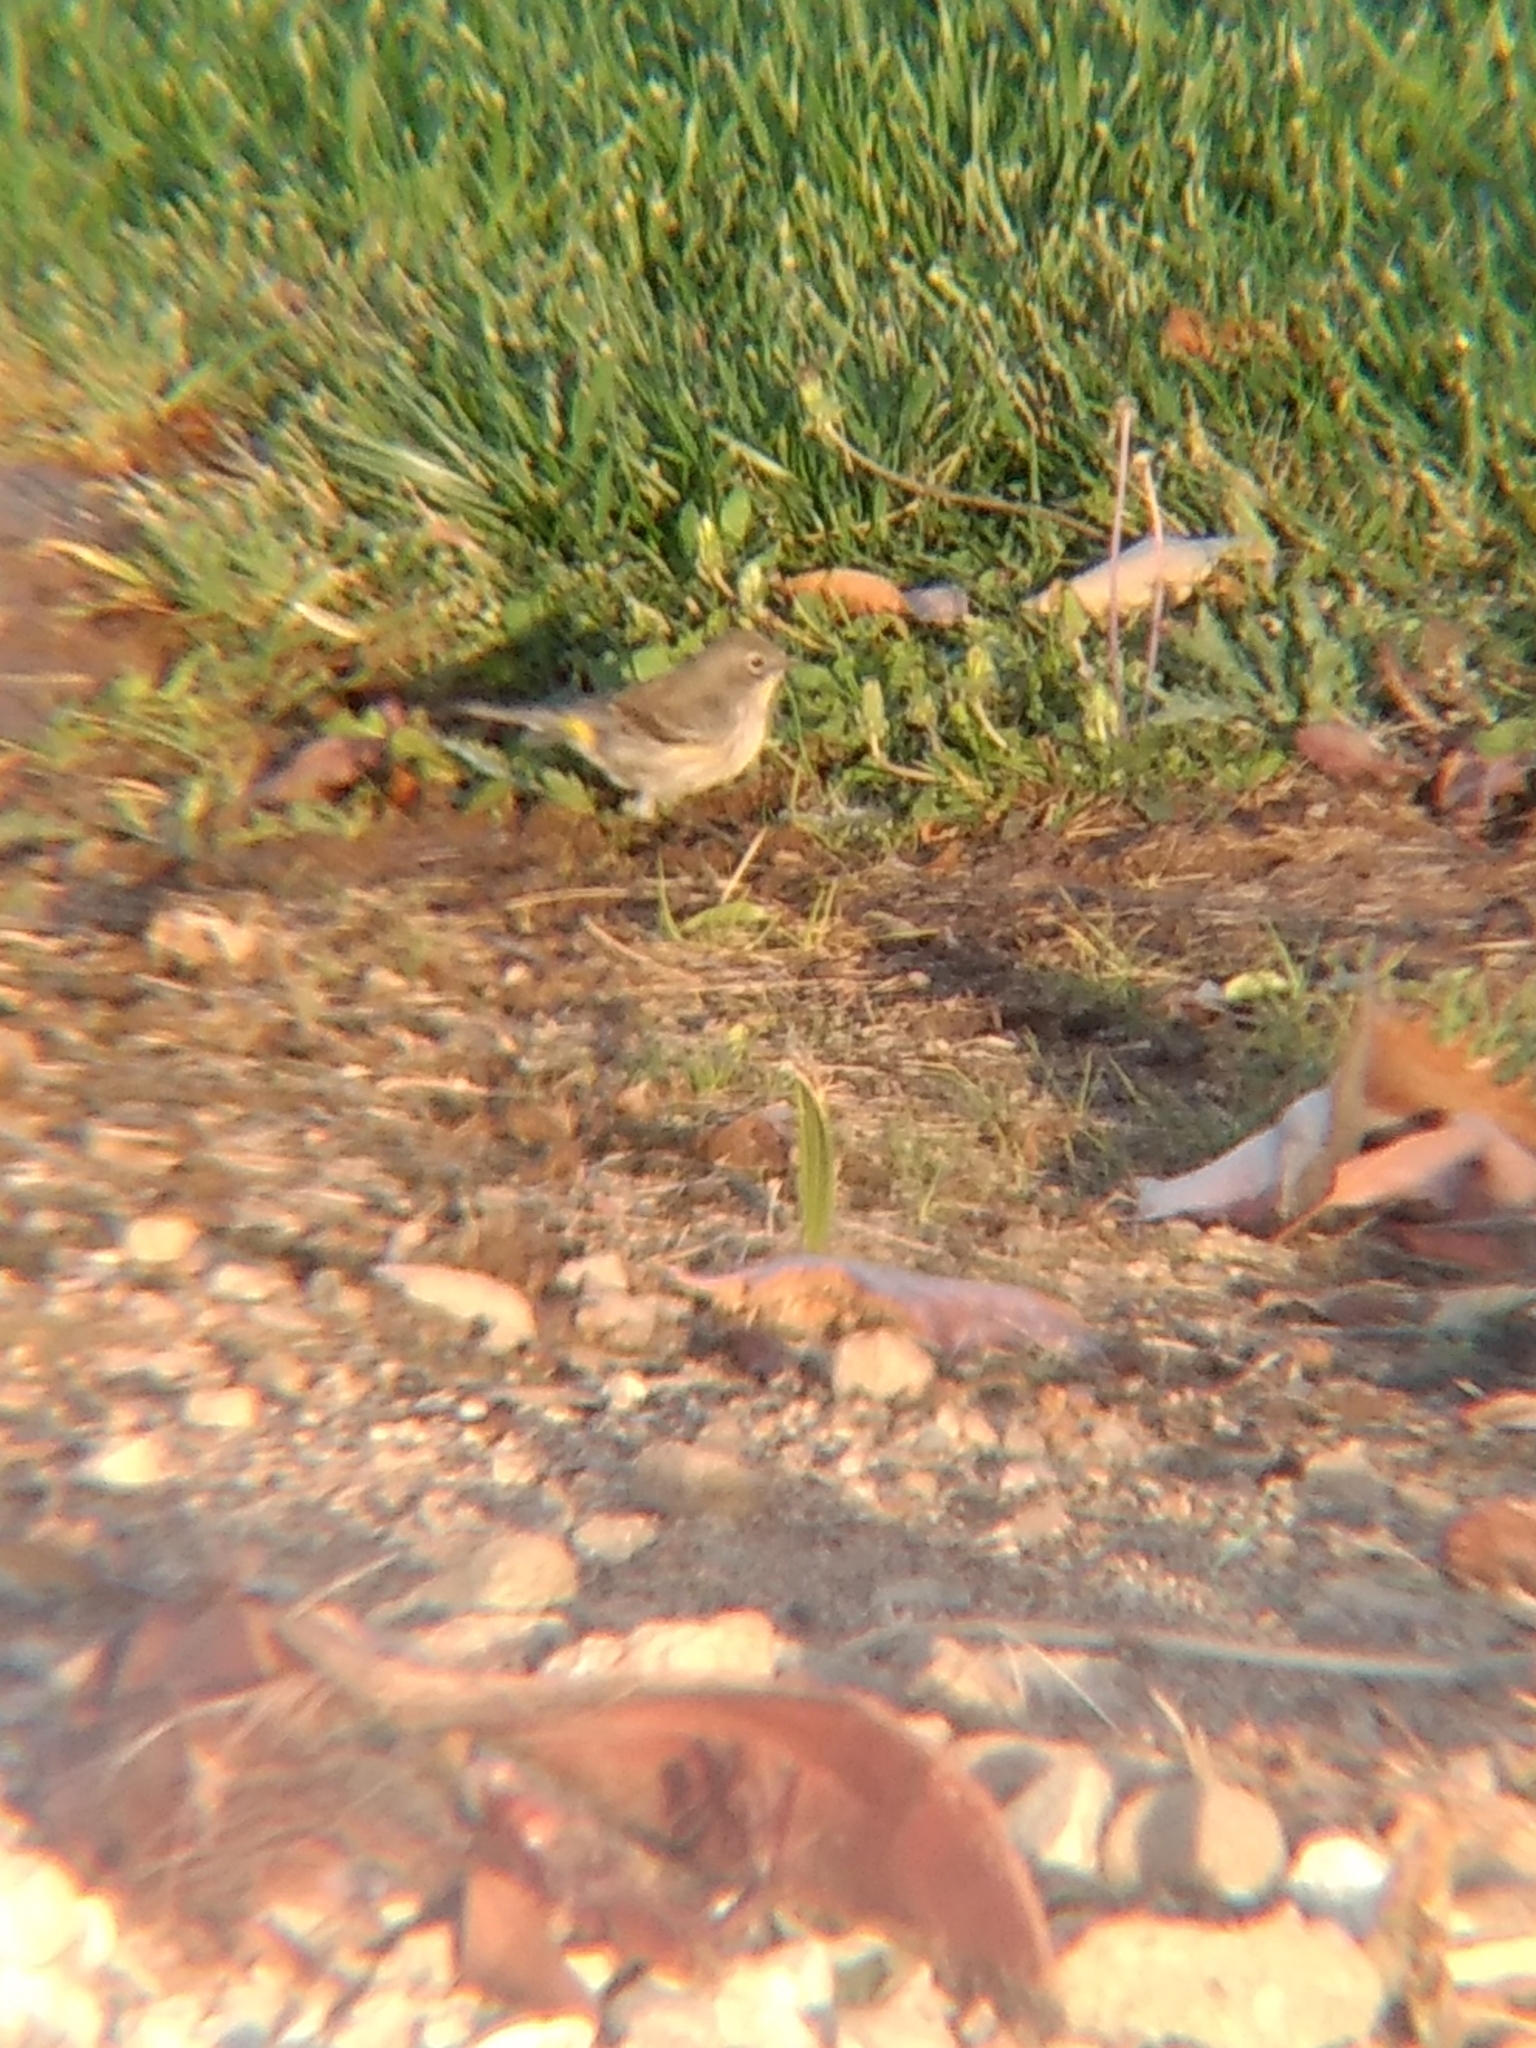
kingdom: Animalia
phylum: Chordata
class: Aves
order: Passeriformes
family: Parulidae
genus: Setophaga
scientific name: Setophaga coronata
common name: Myrtle warbler
